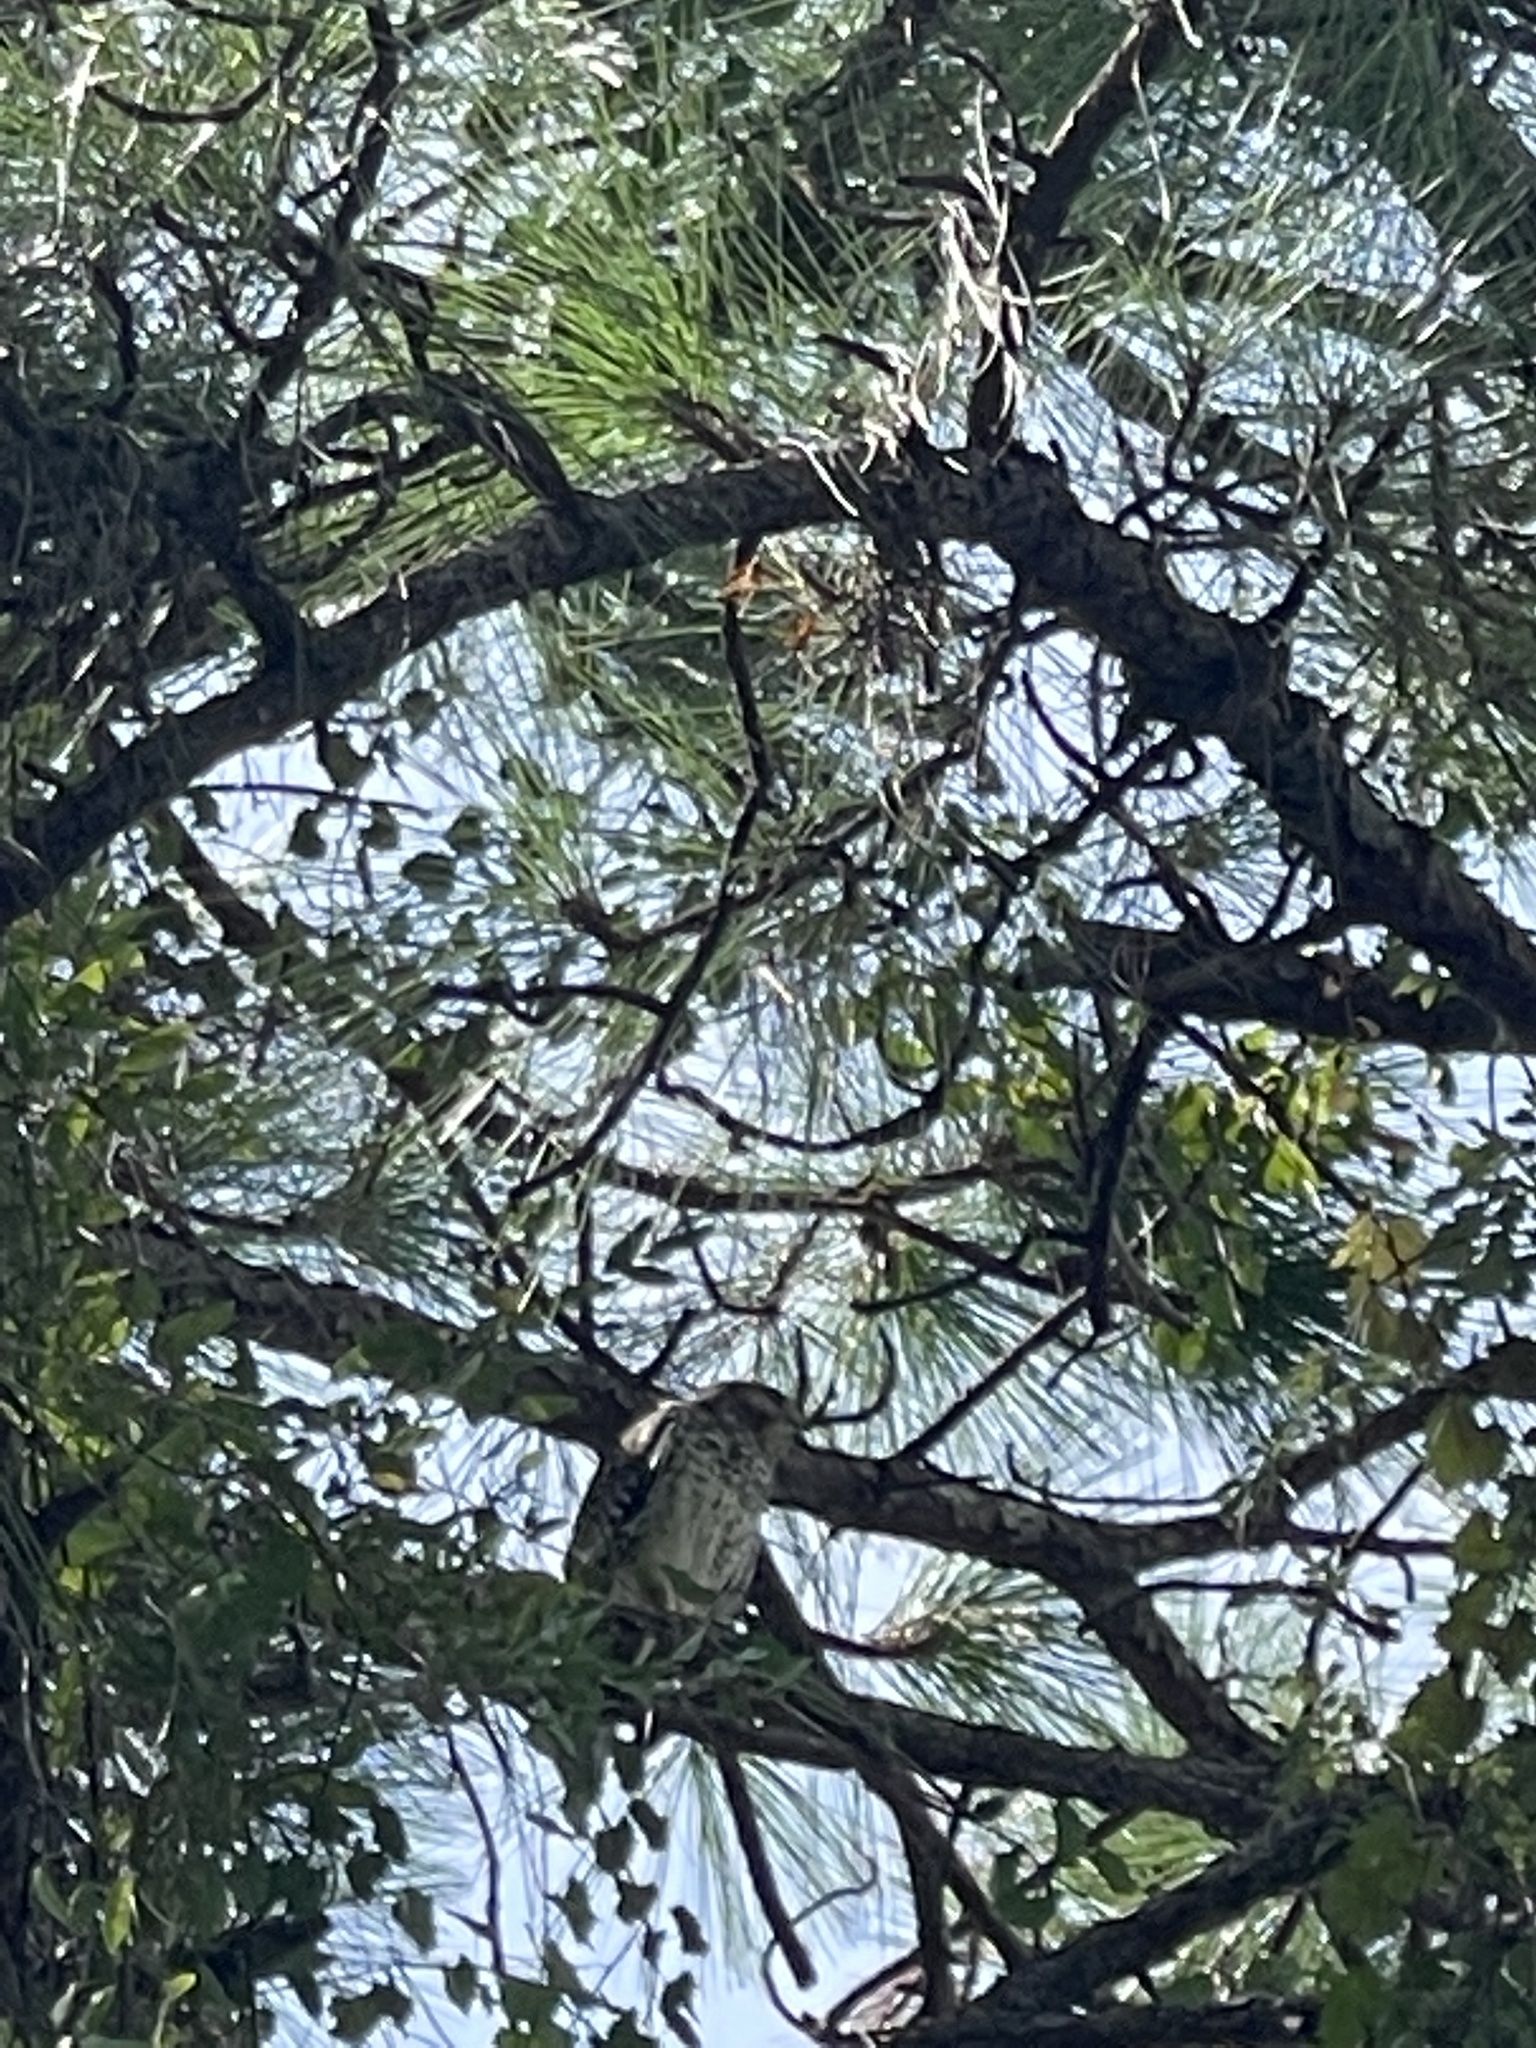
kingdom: Animalia
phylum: Chordata
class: Aves
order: Accipitriformes
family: Accipitridae
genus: Buteo
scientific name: Buteo lineatus
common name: Red-shouldered hawk
